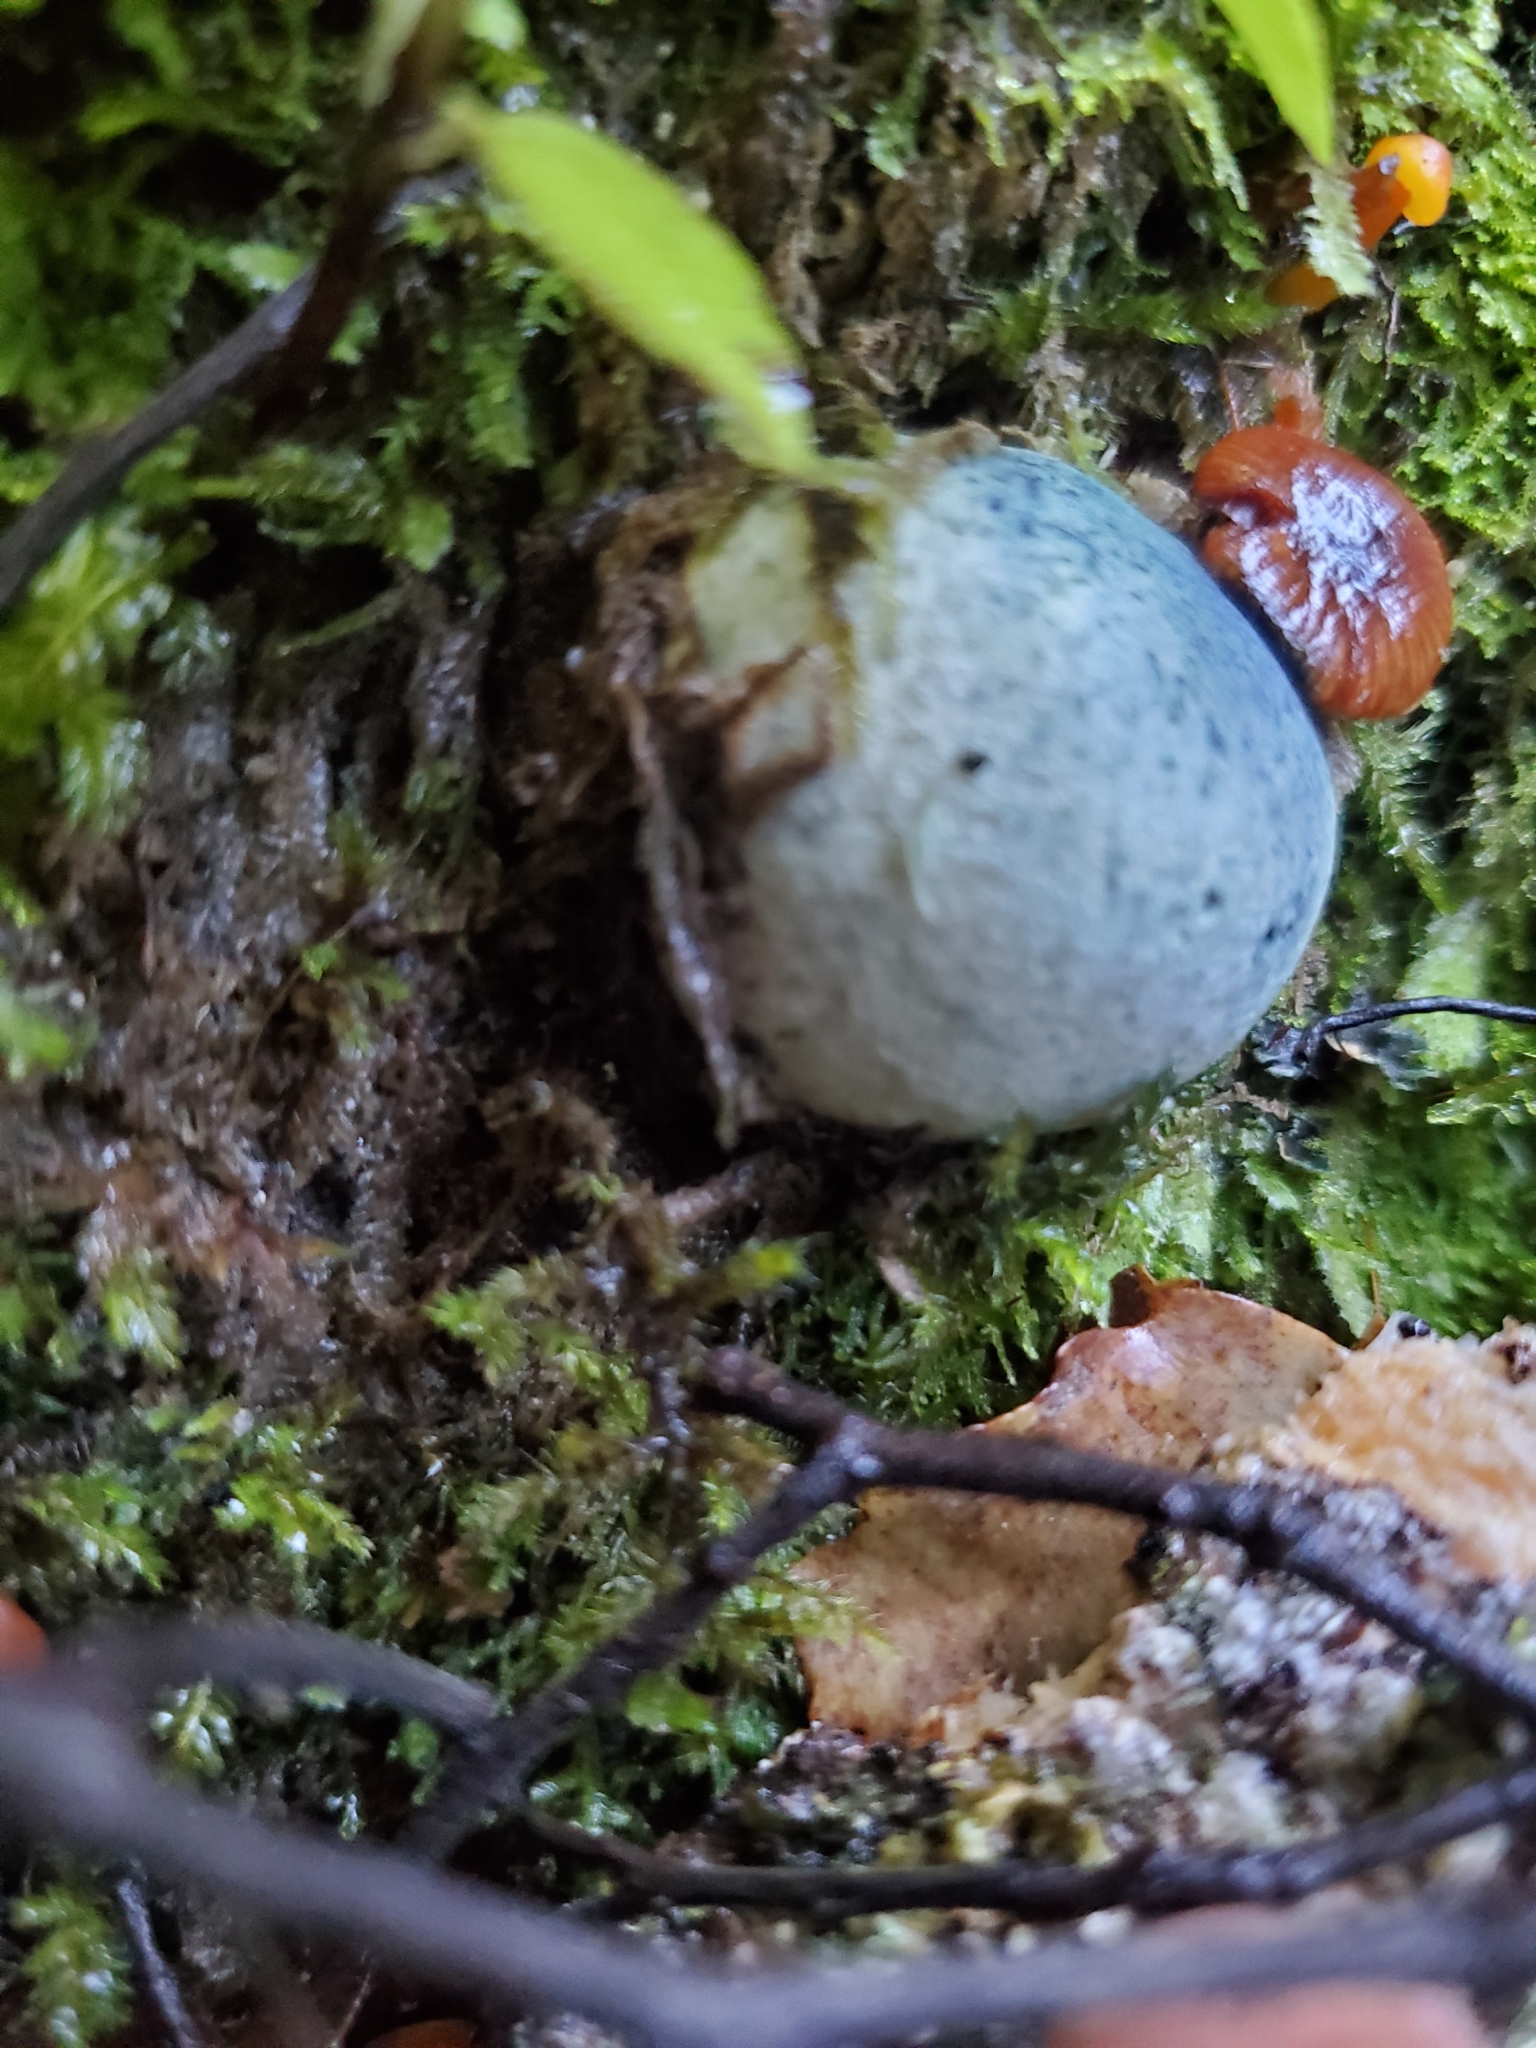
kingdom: Fungi
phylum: Basidiomycota
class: Agaricomycetes
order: Boletales
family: Boletaceae
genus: Leccinum
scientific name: Leccinum pachyderme
